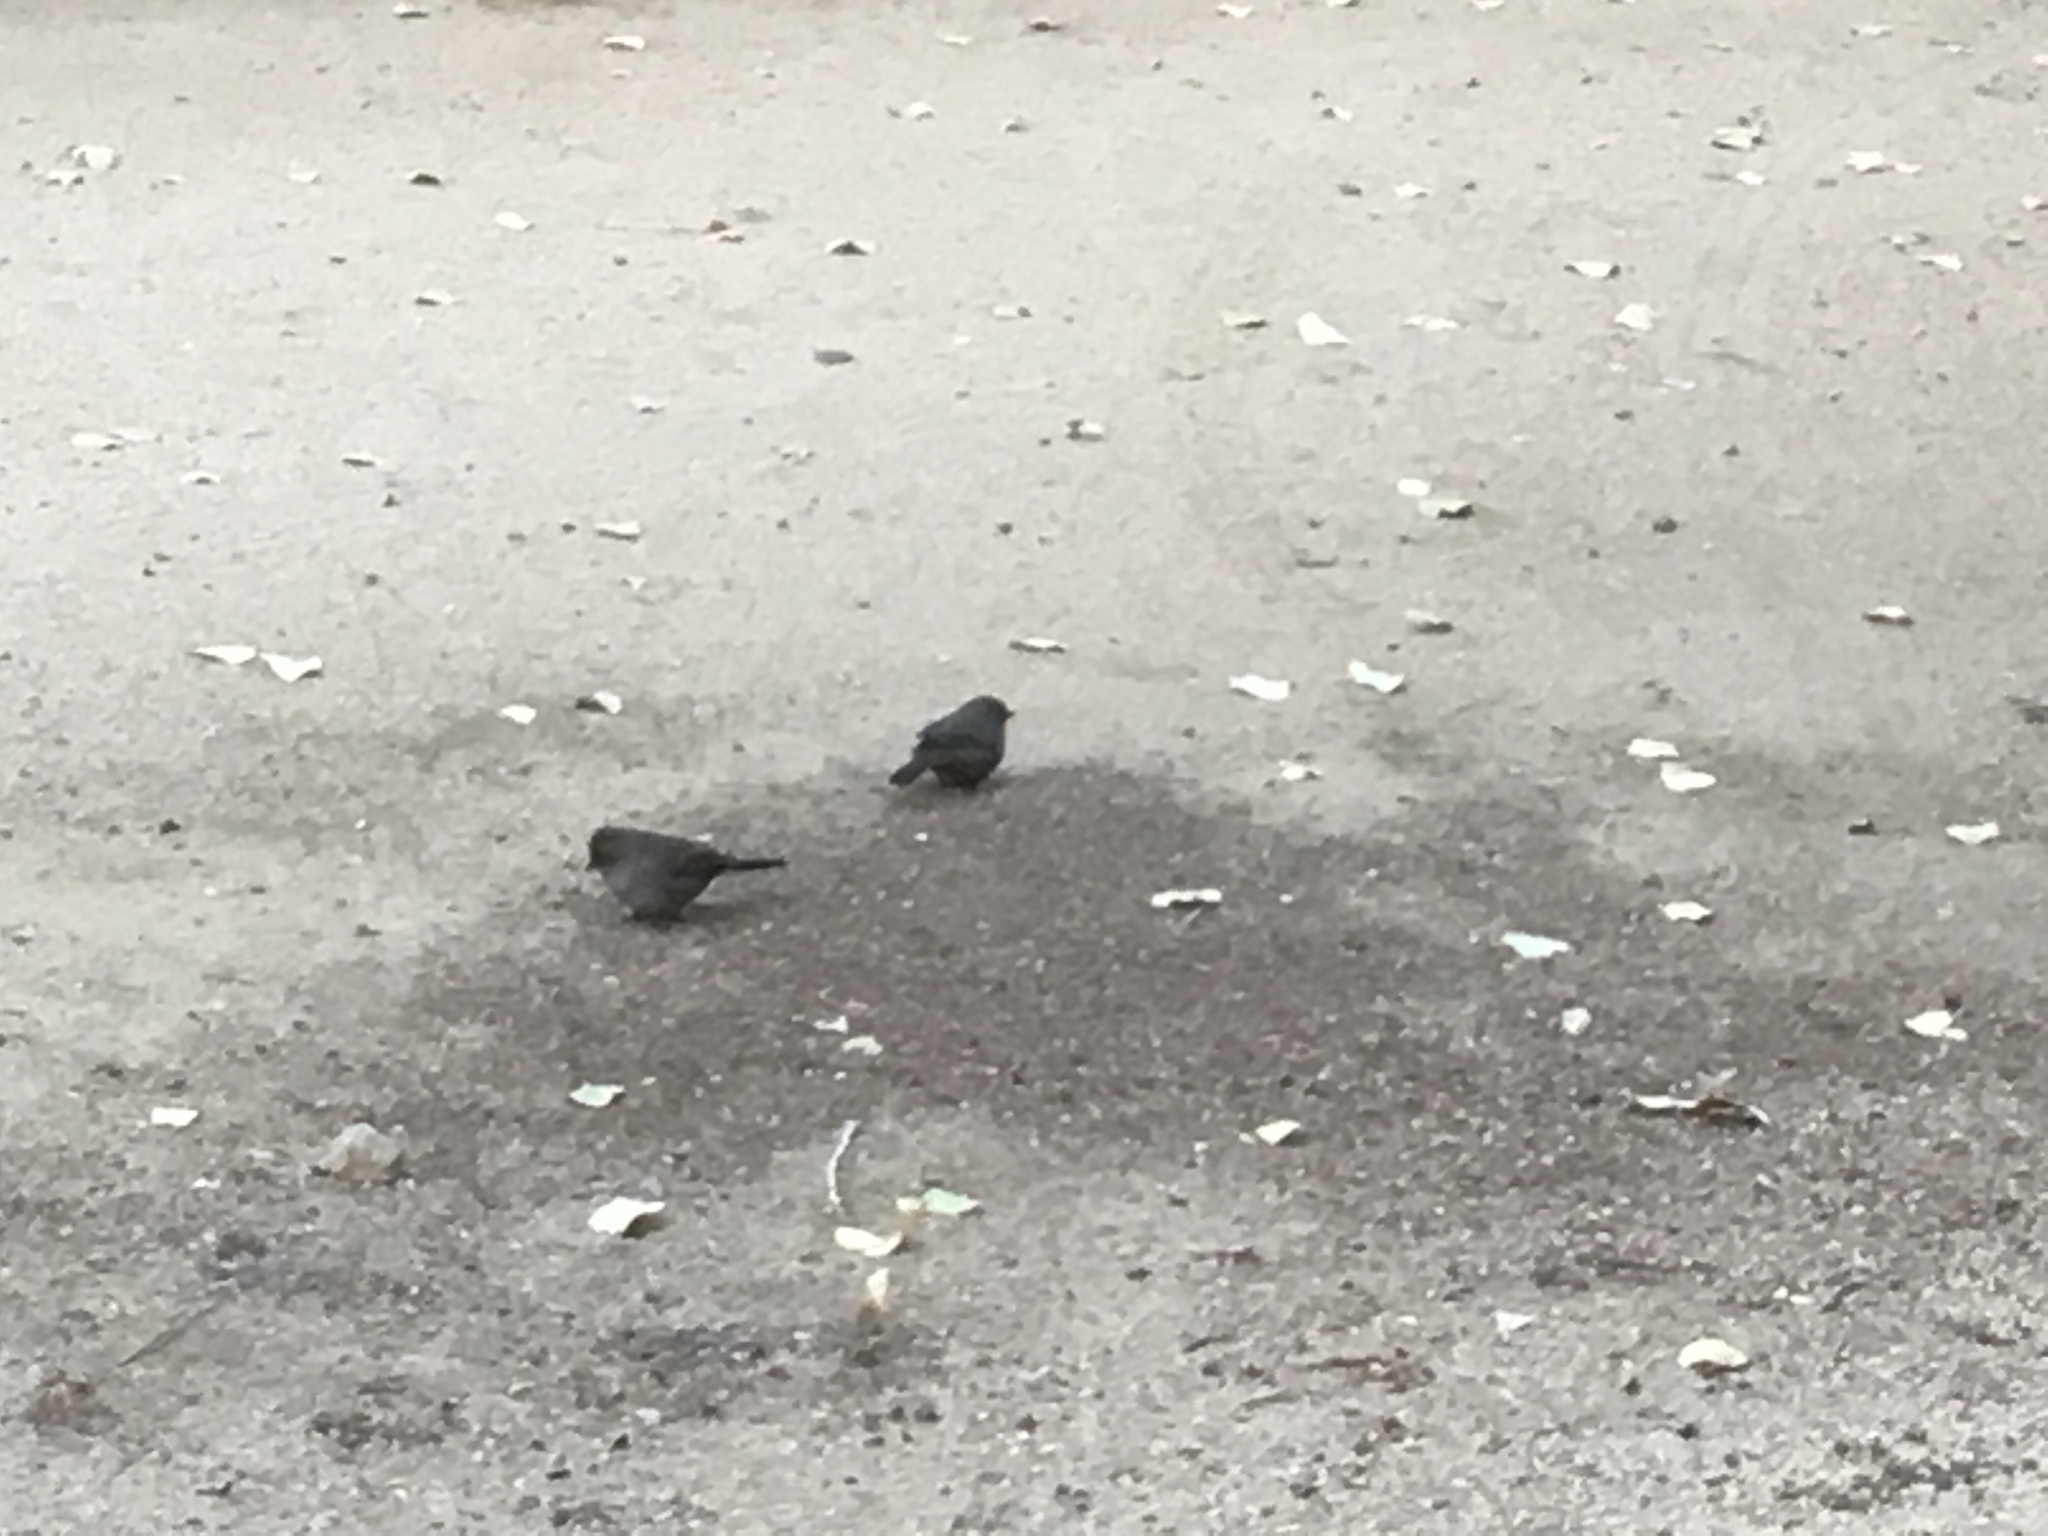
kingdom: Animalia
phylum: Chordata
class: Aves
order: Passeriformes
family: Passerellidae
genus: Melozone
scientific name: Melozone crissalis
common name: California towhee
